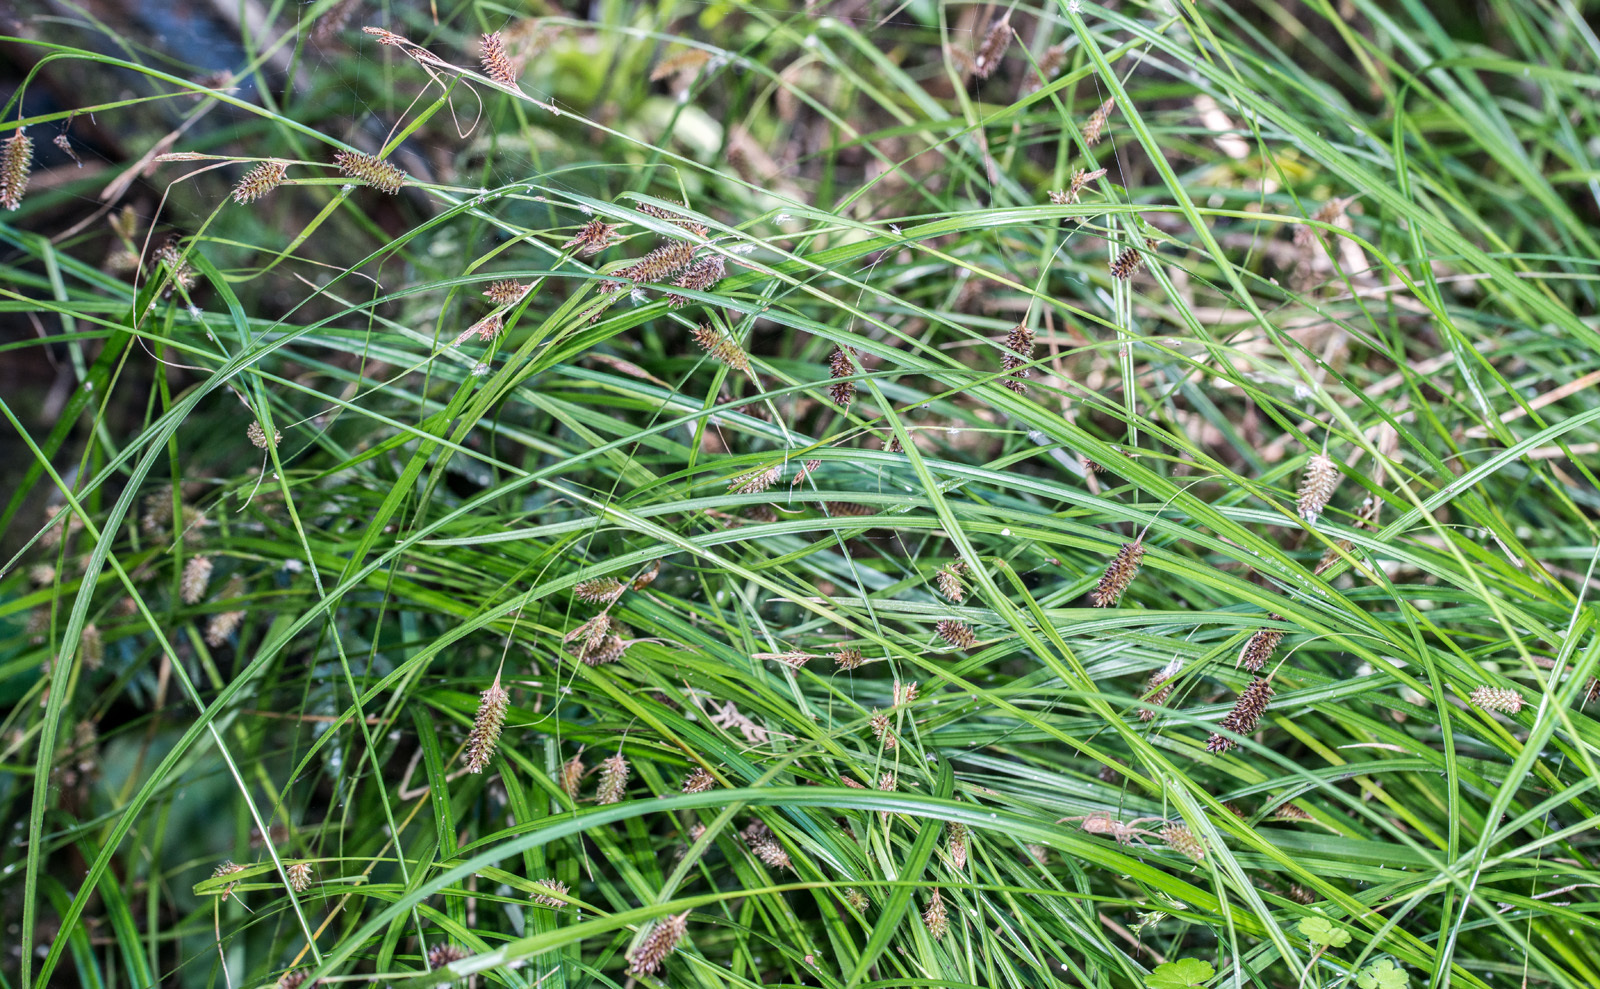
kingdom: Plantae
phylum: Tracheophyta
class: Liliopsida
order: Poales
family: Cyperaceae
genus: Carex
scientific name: Carex solandri
